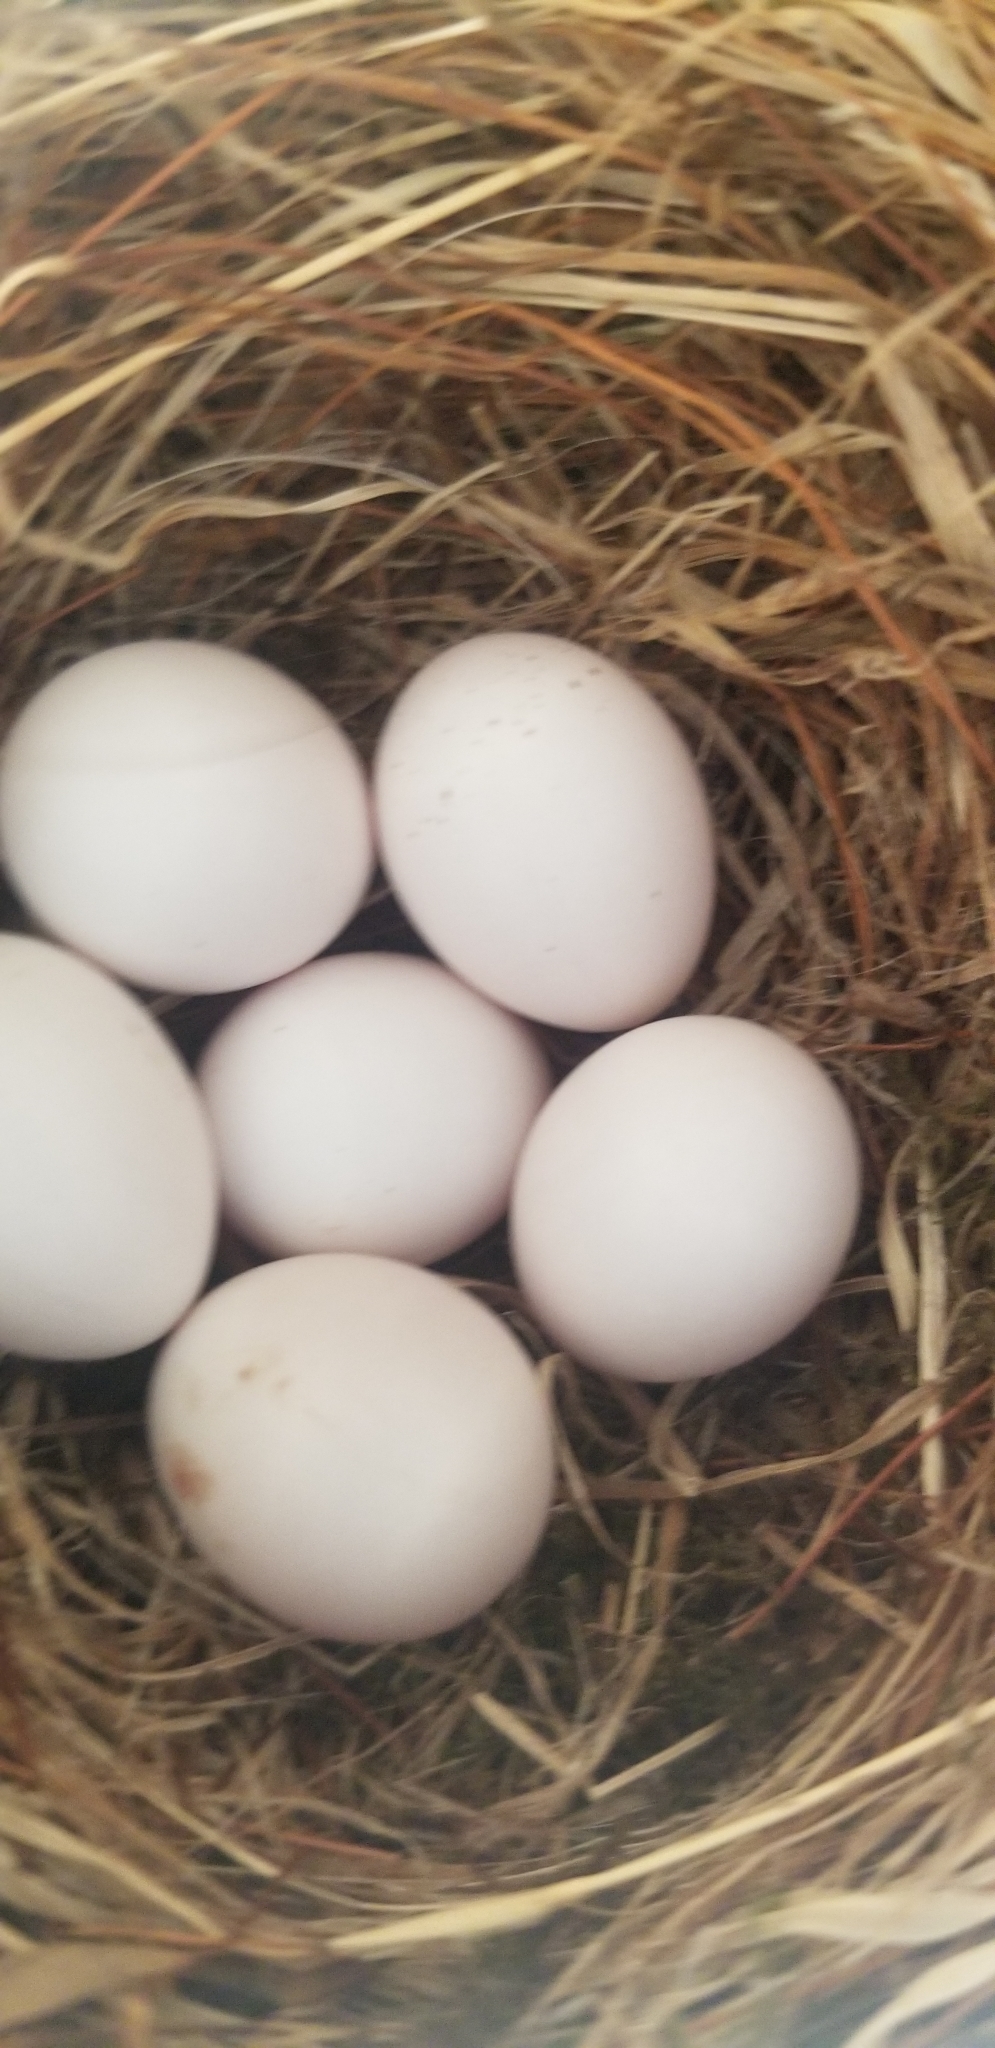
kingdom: Animalia
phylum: Chordata
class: Aves
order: Passeriformes
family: Tyrannidae
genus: Sayornis
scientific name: Sayornis phoebe
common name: Eastern phoebe
